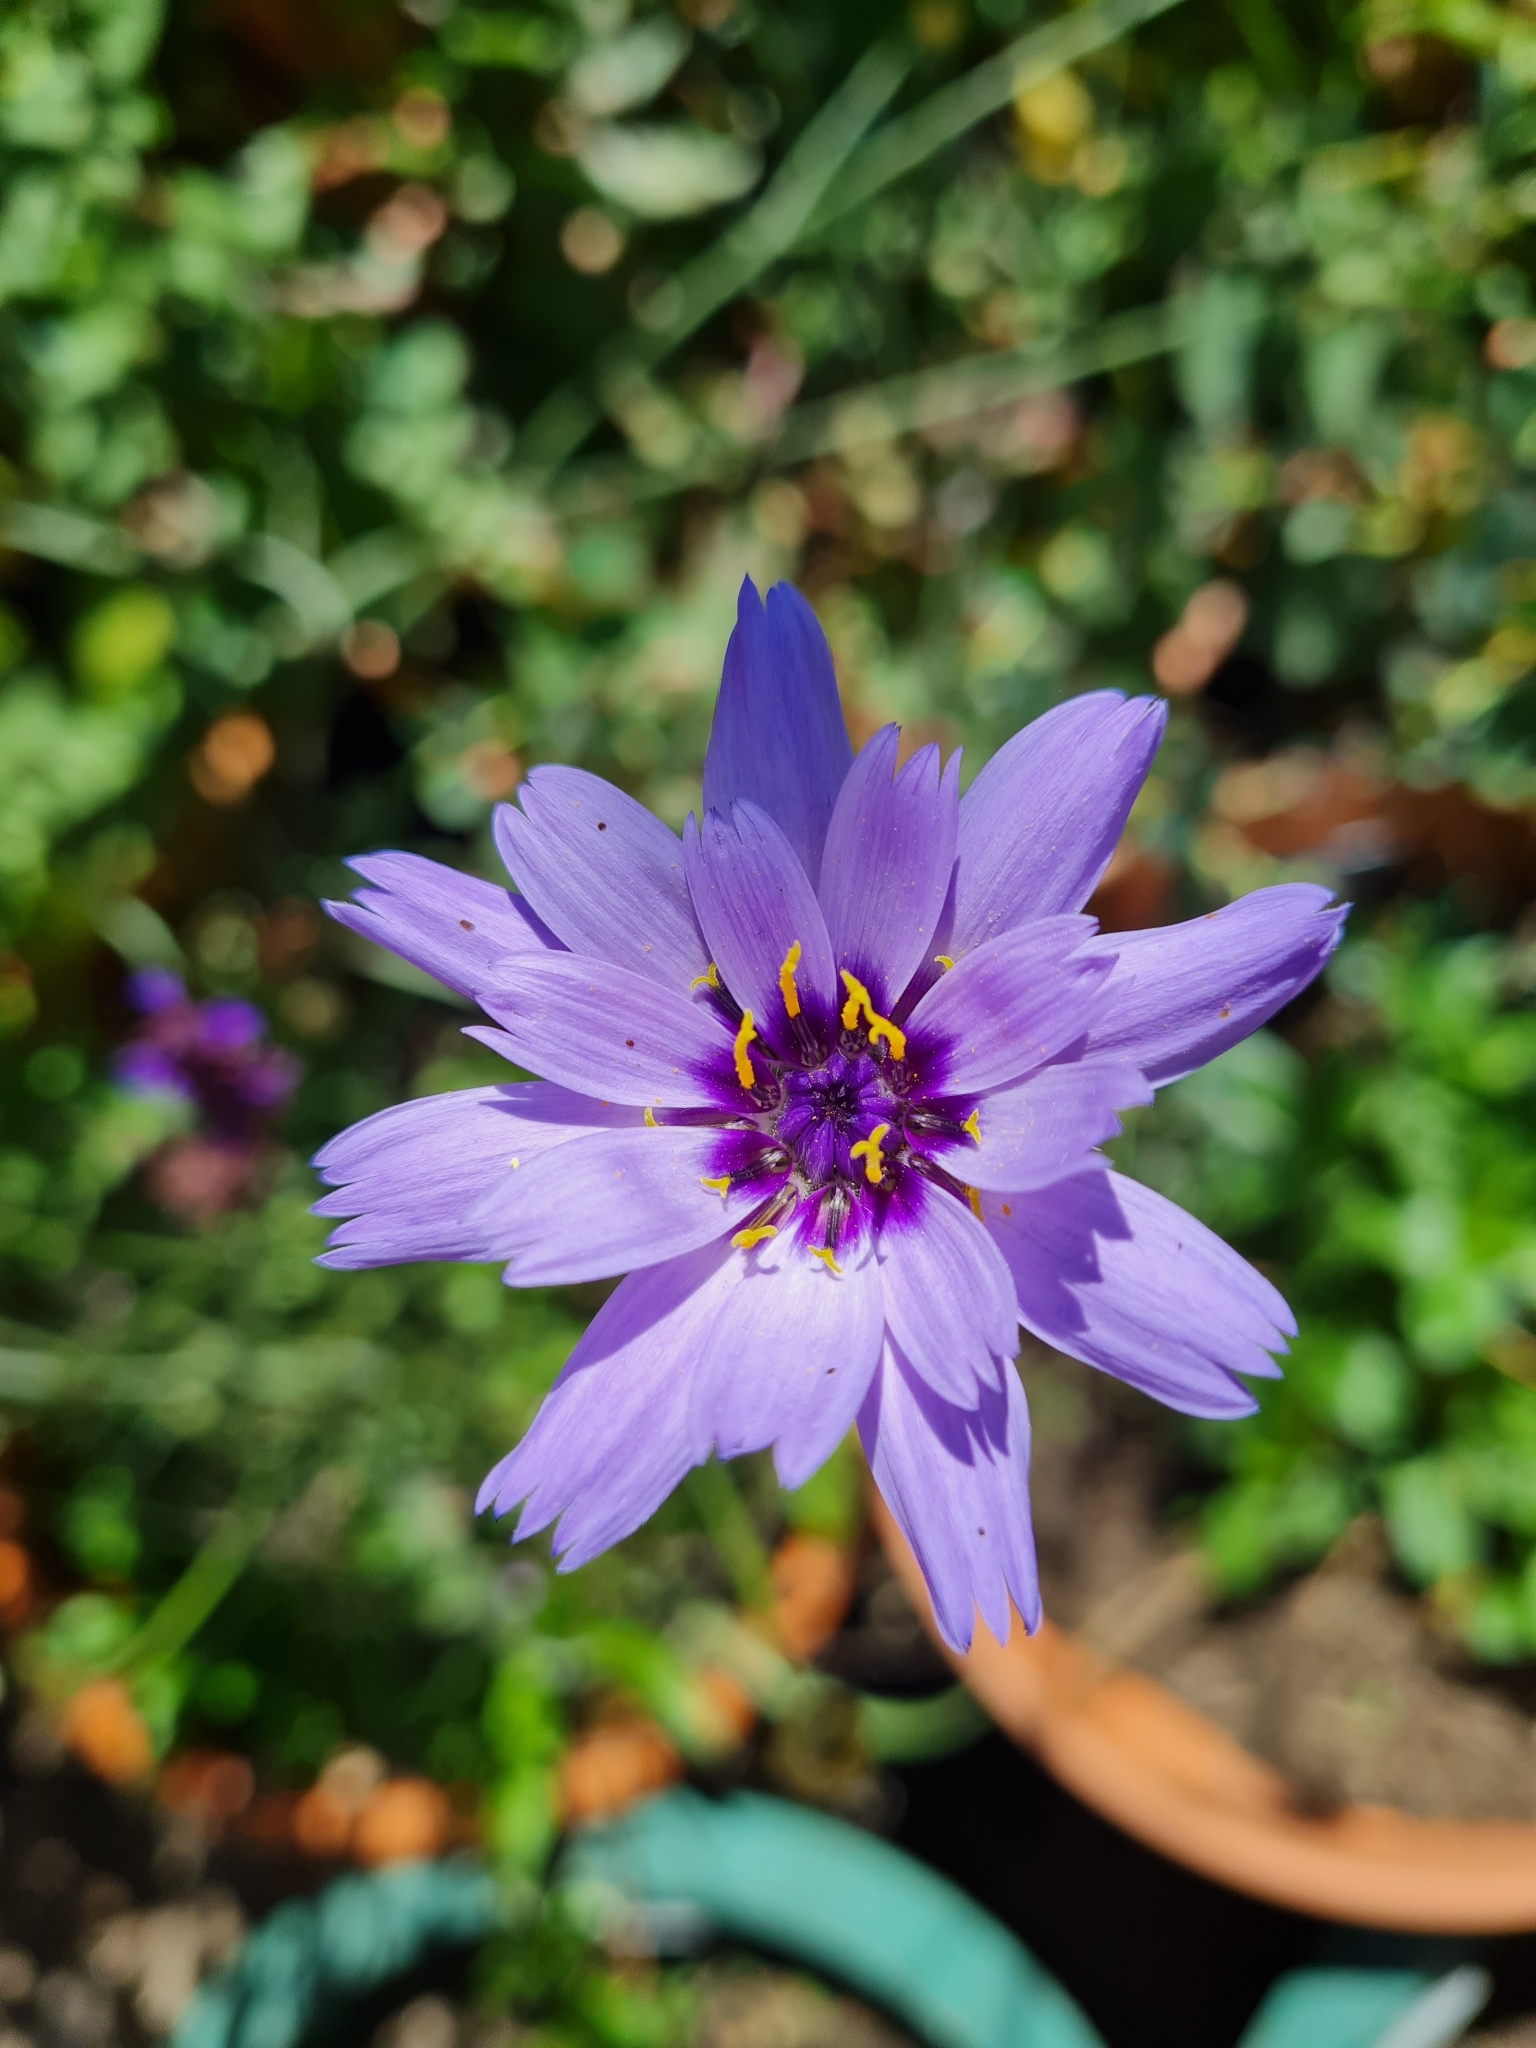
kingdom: Plantae
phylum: Tracheophyta
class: Magnoliopsida
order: Asterales
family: Asteraceae
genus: Catananche
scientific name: Catananche caerulea
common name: Blue cupidone
